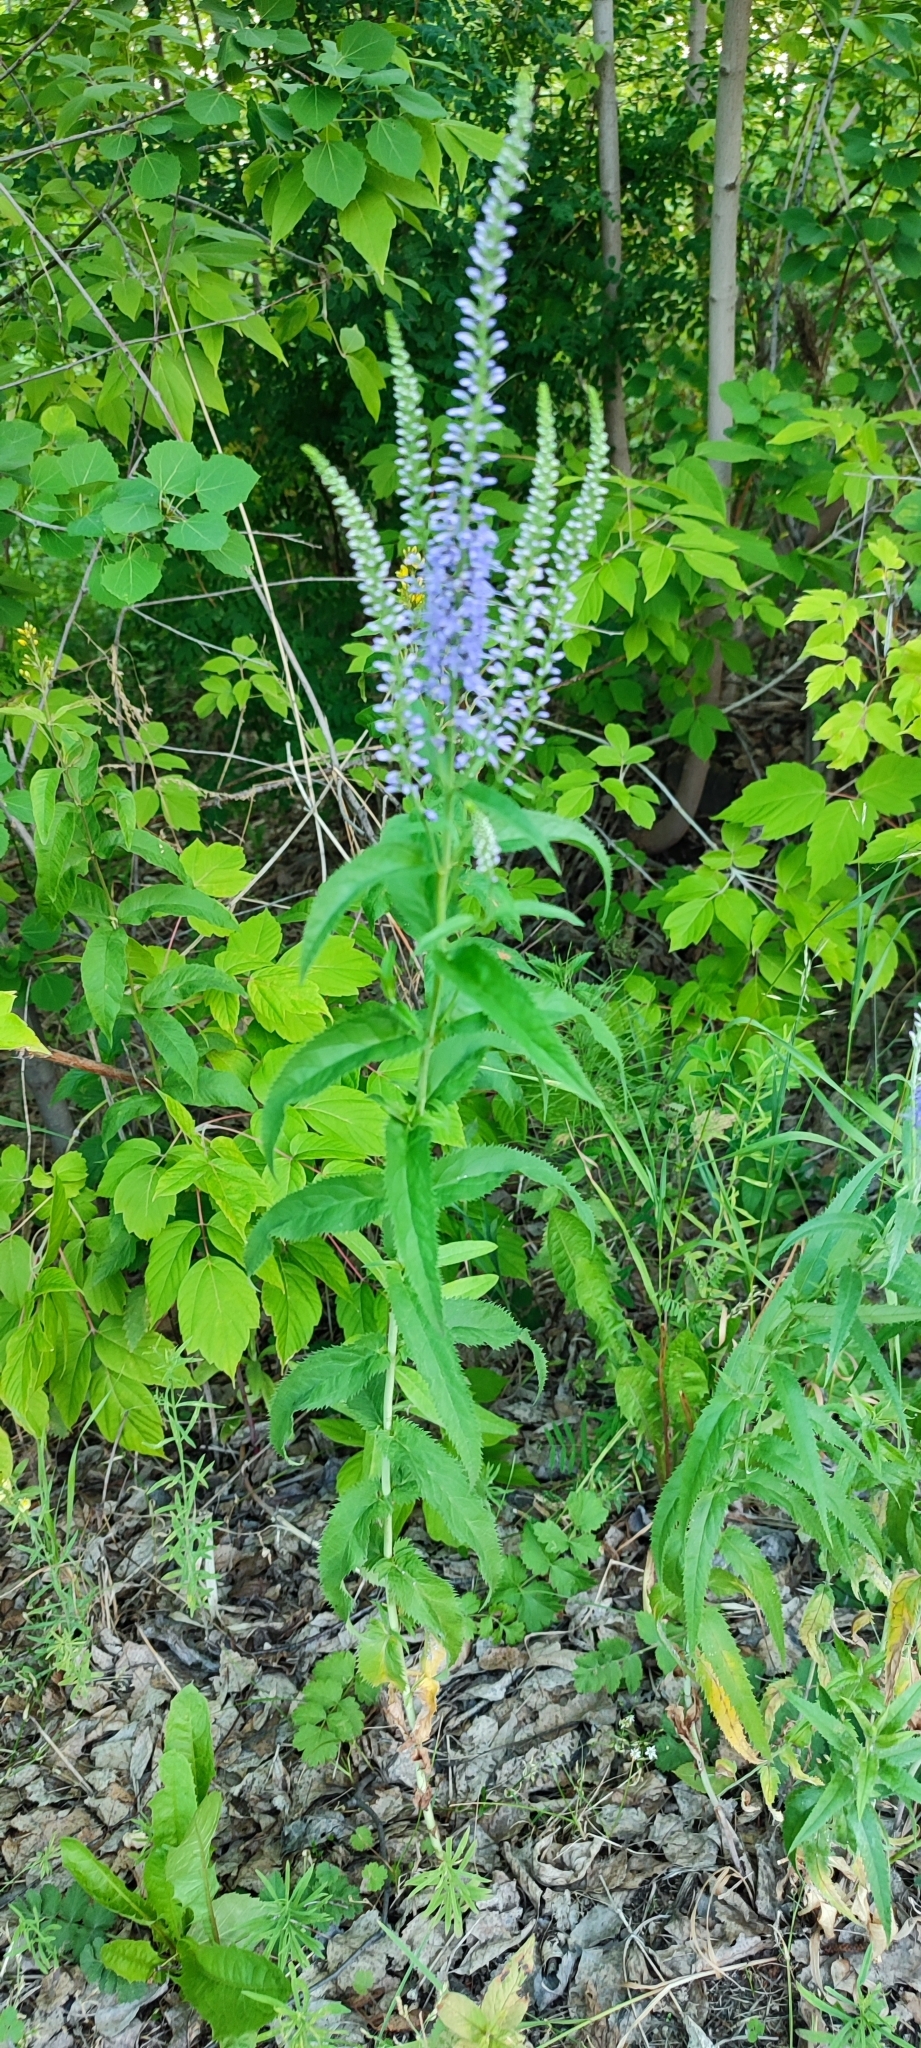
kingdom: Plantae
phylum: Tracheophyta
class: Magnoliopsida
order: Lamiales
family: Plantaginaceae
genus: Veronica
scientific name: Veronica longifolia
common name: Garden speedwell
